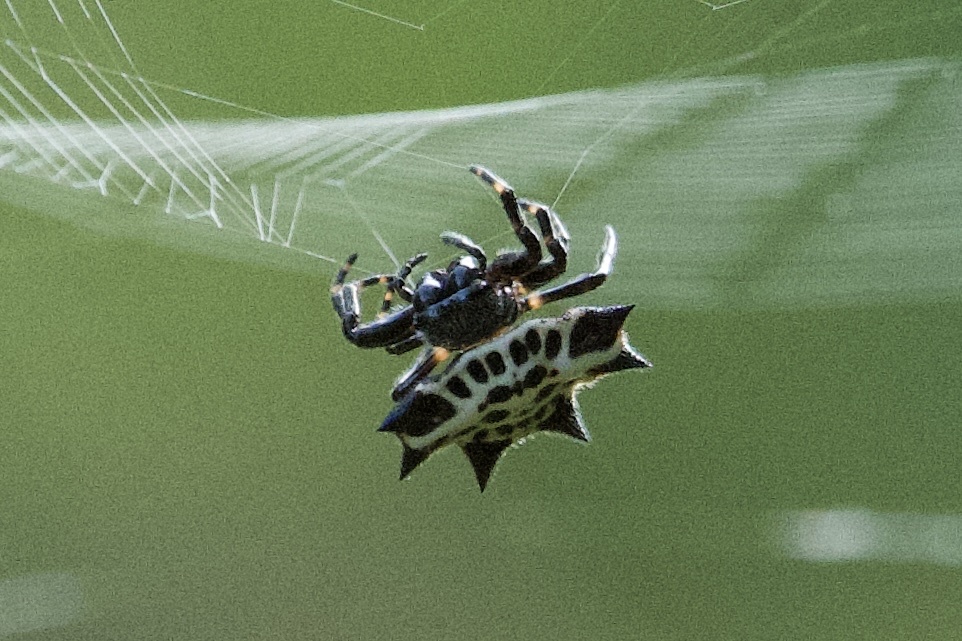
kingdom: Animalia
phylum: Arthropoda
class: Arachnida
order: Araneae
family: Araneidae
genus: Gasteracantha
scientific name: Gasteracantha cancriformis
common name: Orb weavers
